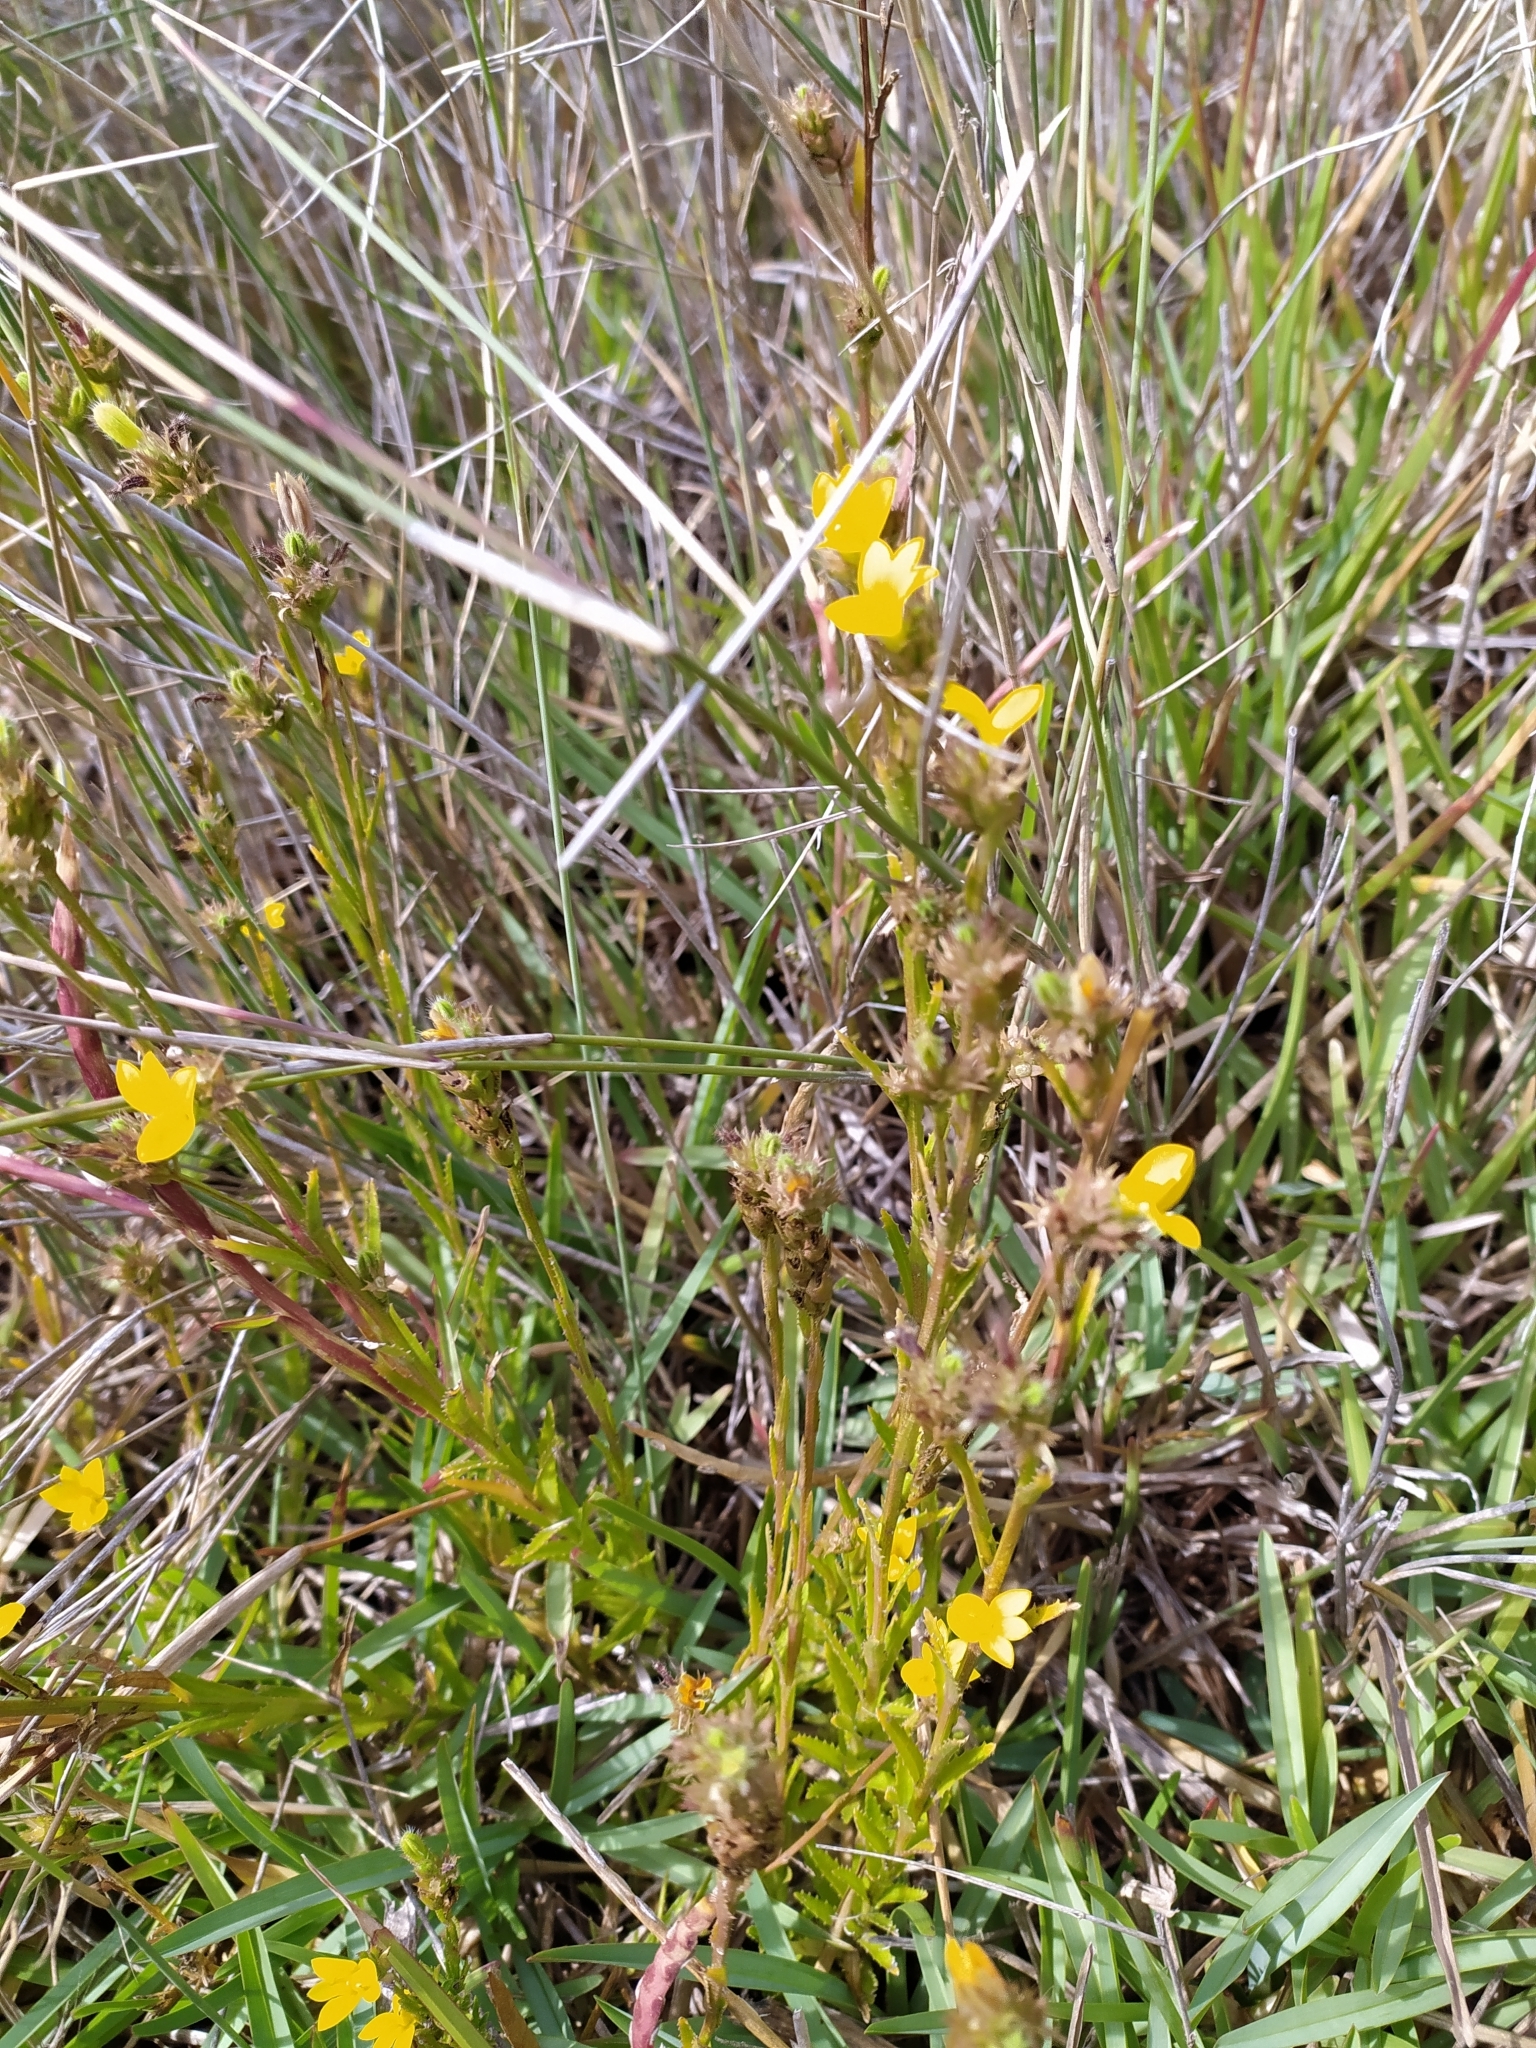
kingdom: Plantae
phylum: Tracheophyta
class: Magnoliopsida
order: Asterales
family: Campanulaceae
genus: Monopsis
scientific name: Monopsis lutea
